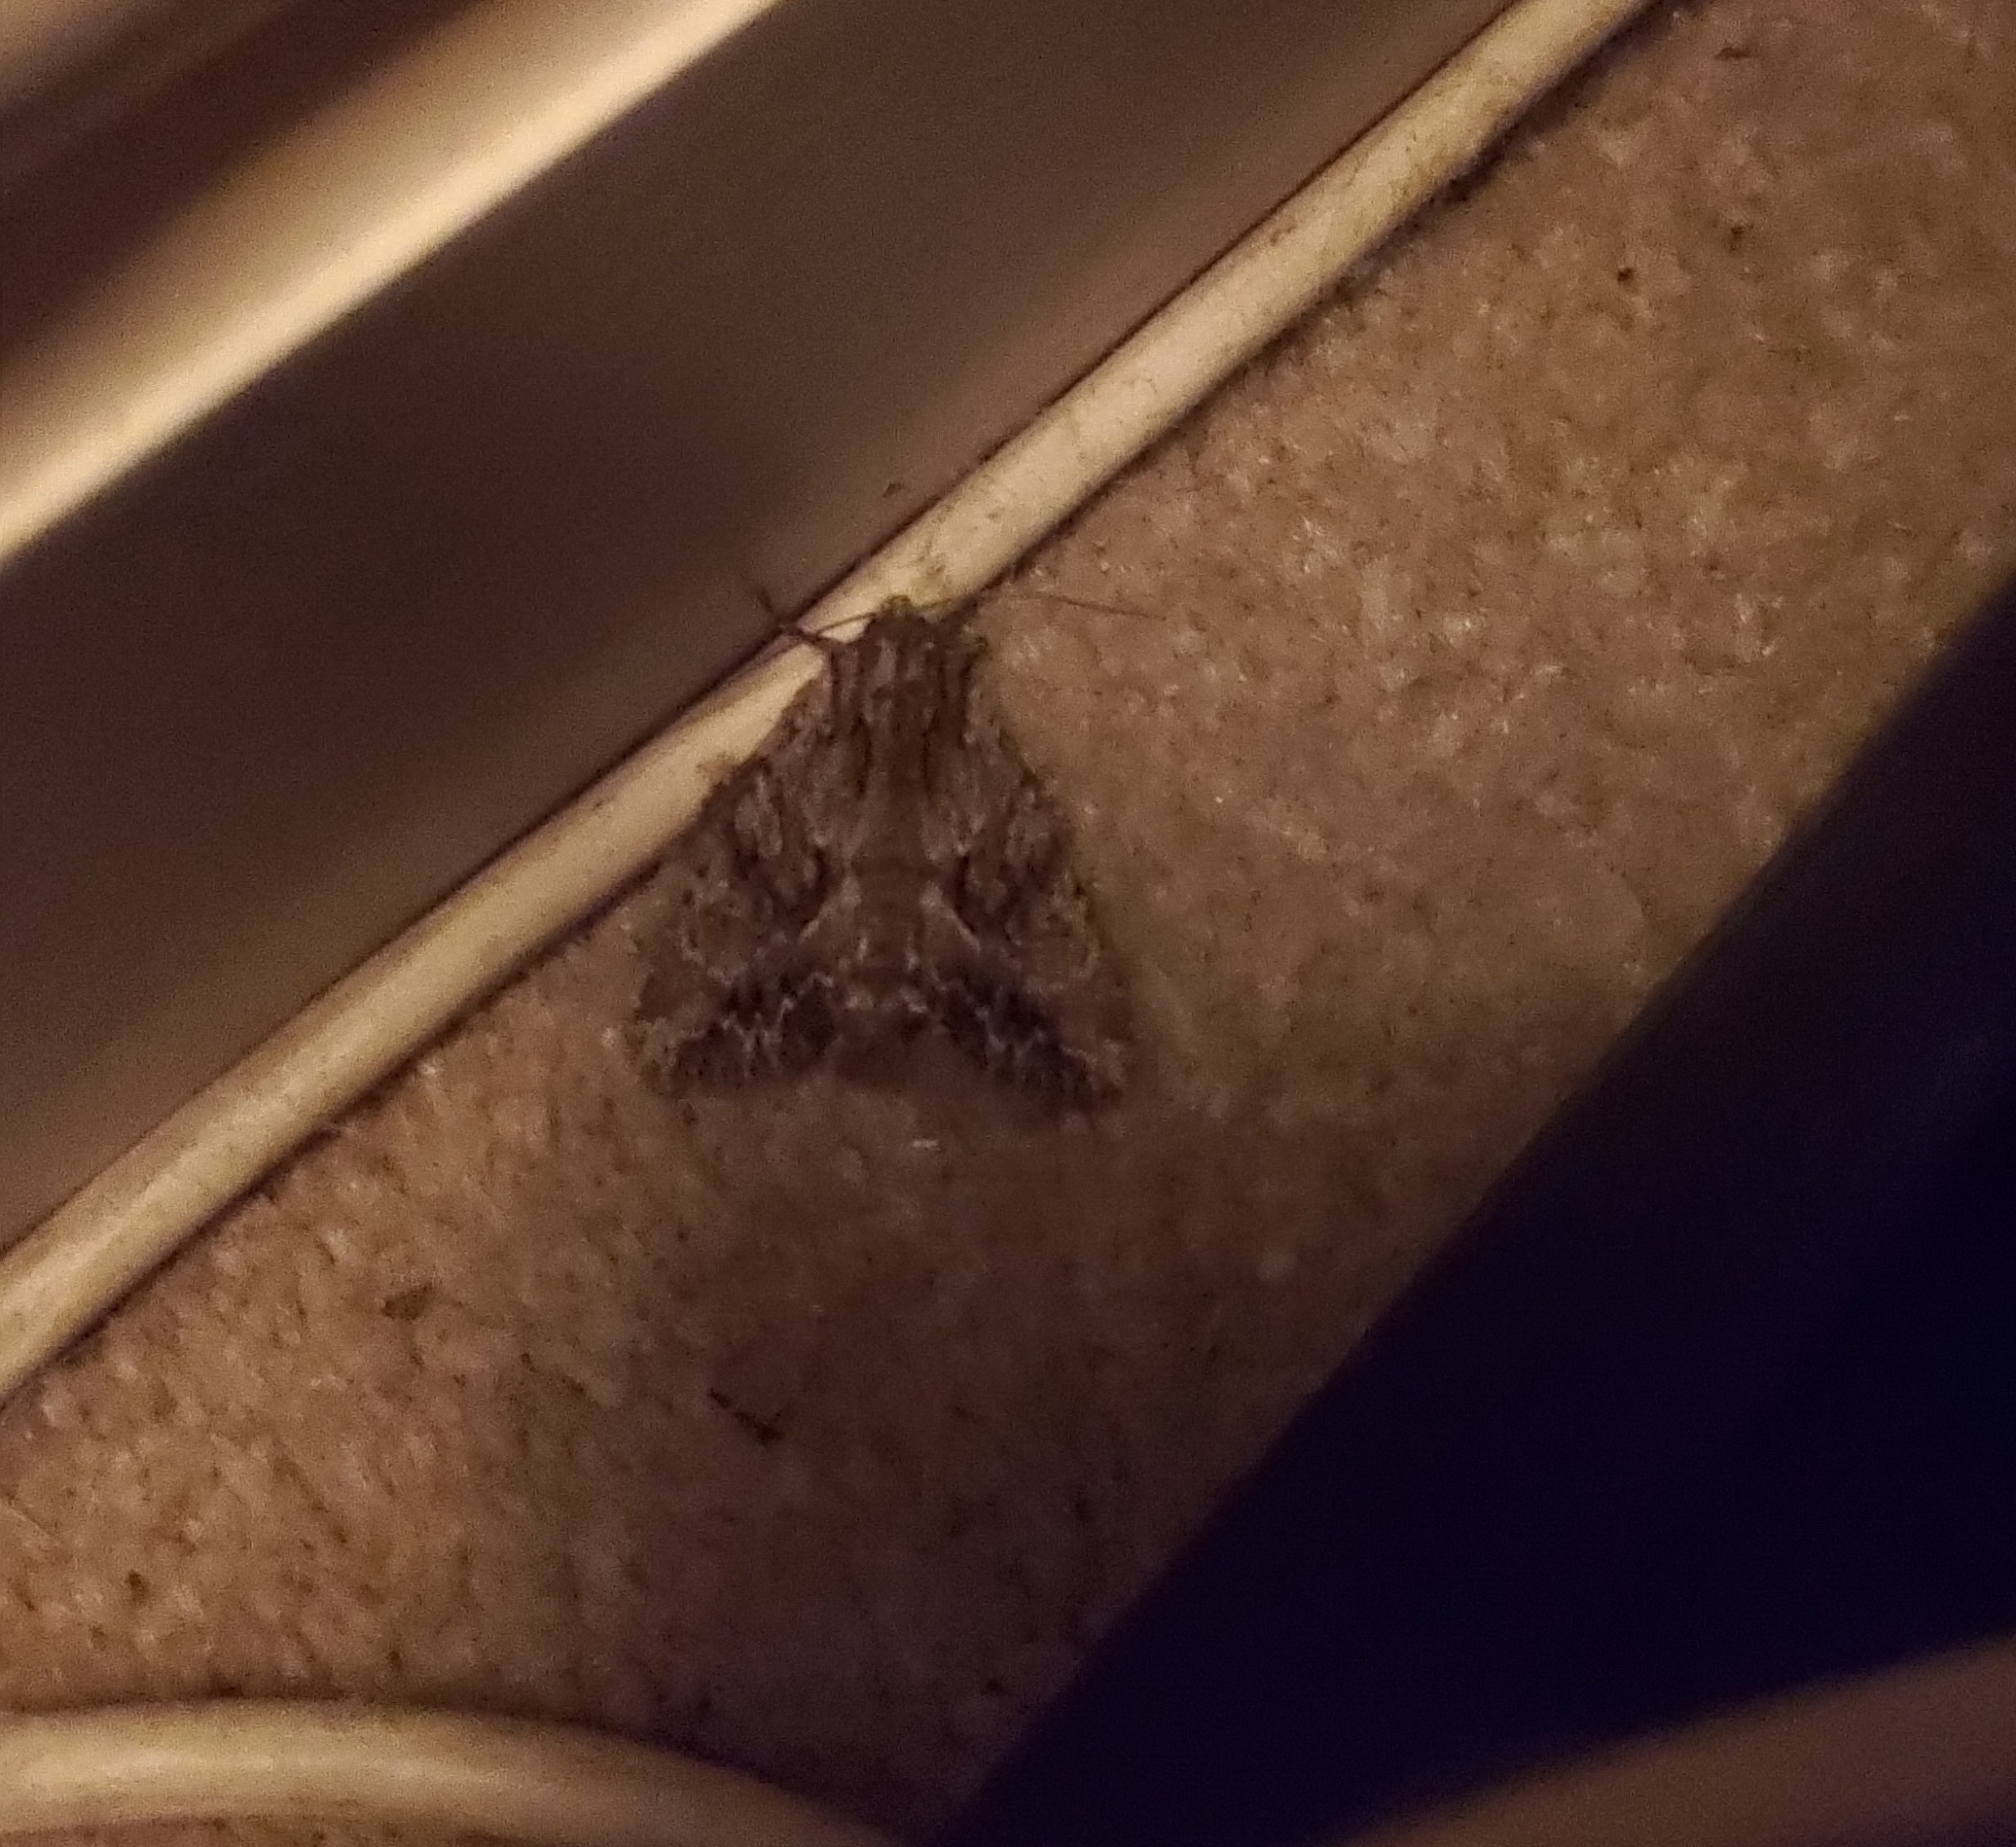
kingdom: Animalia
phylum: Arthropoda
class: Insecta
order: Lepidoptera
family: Noctuidae
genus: Apamea
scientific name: Apamea monoglypha
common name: Dark arches
